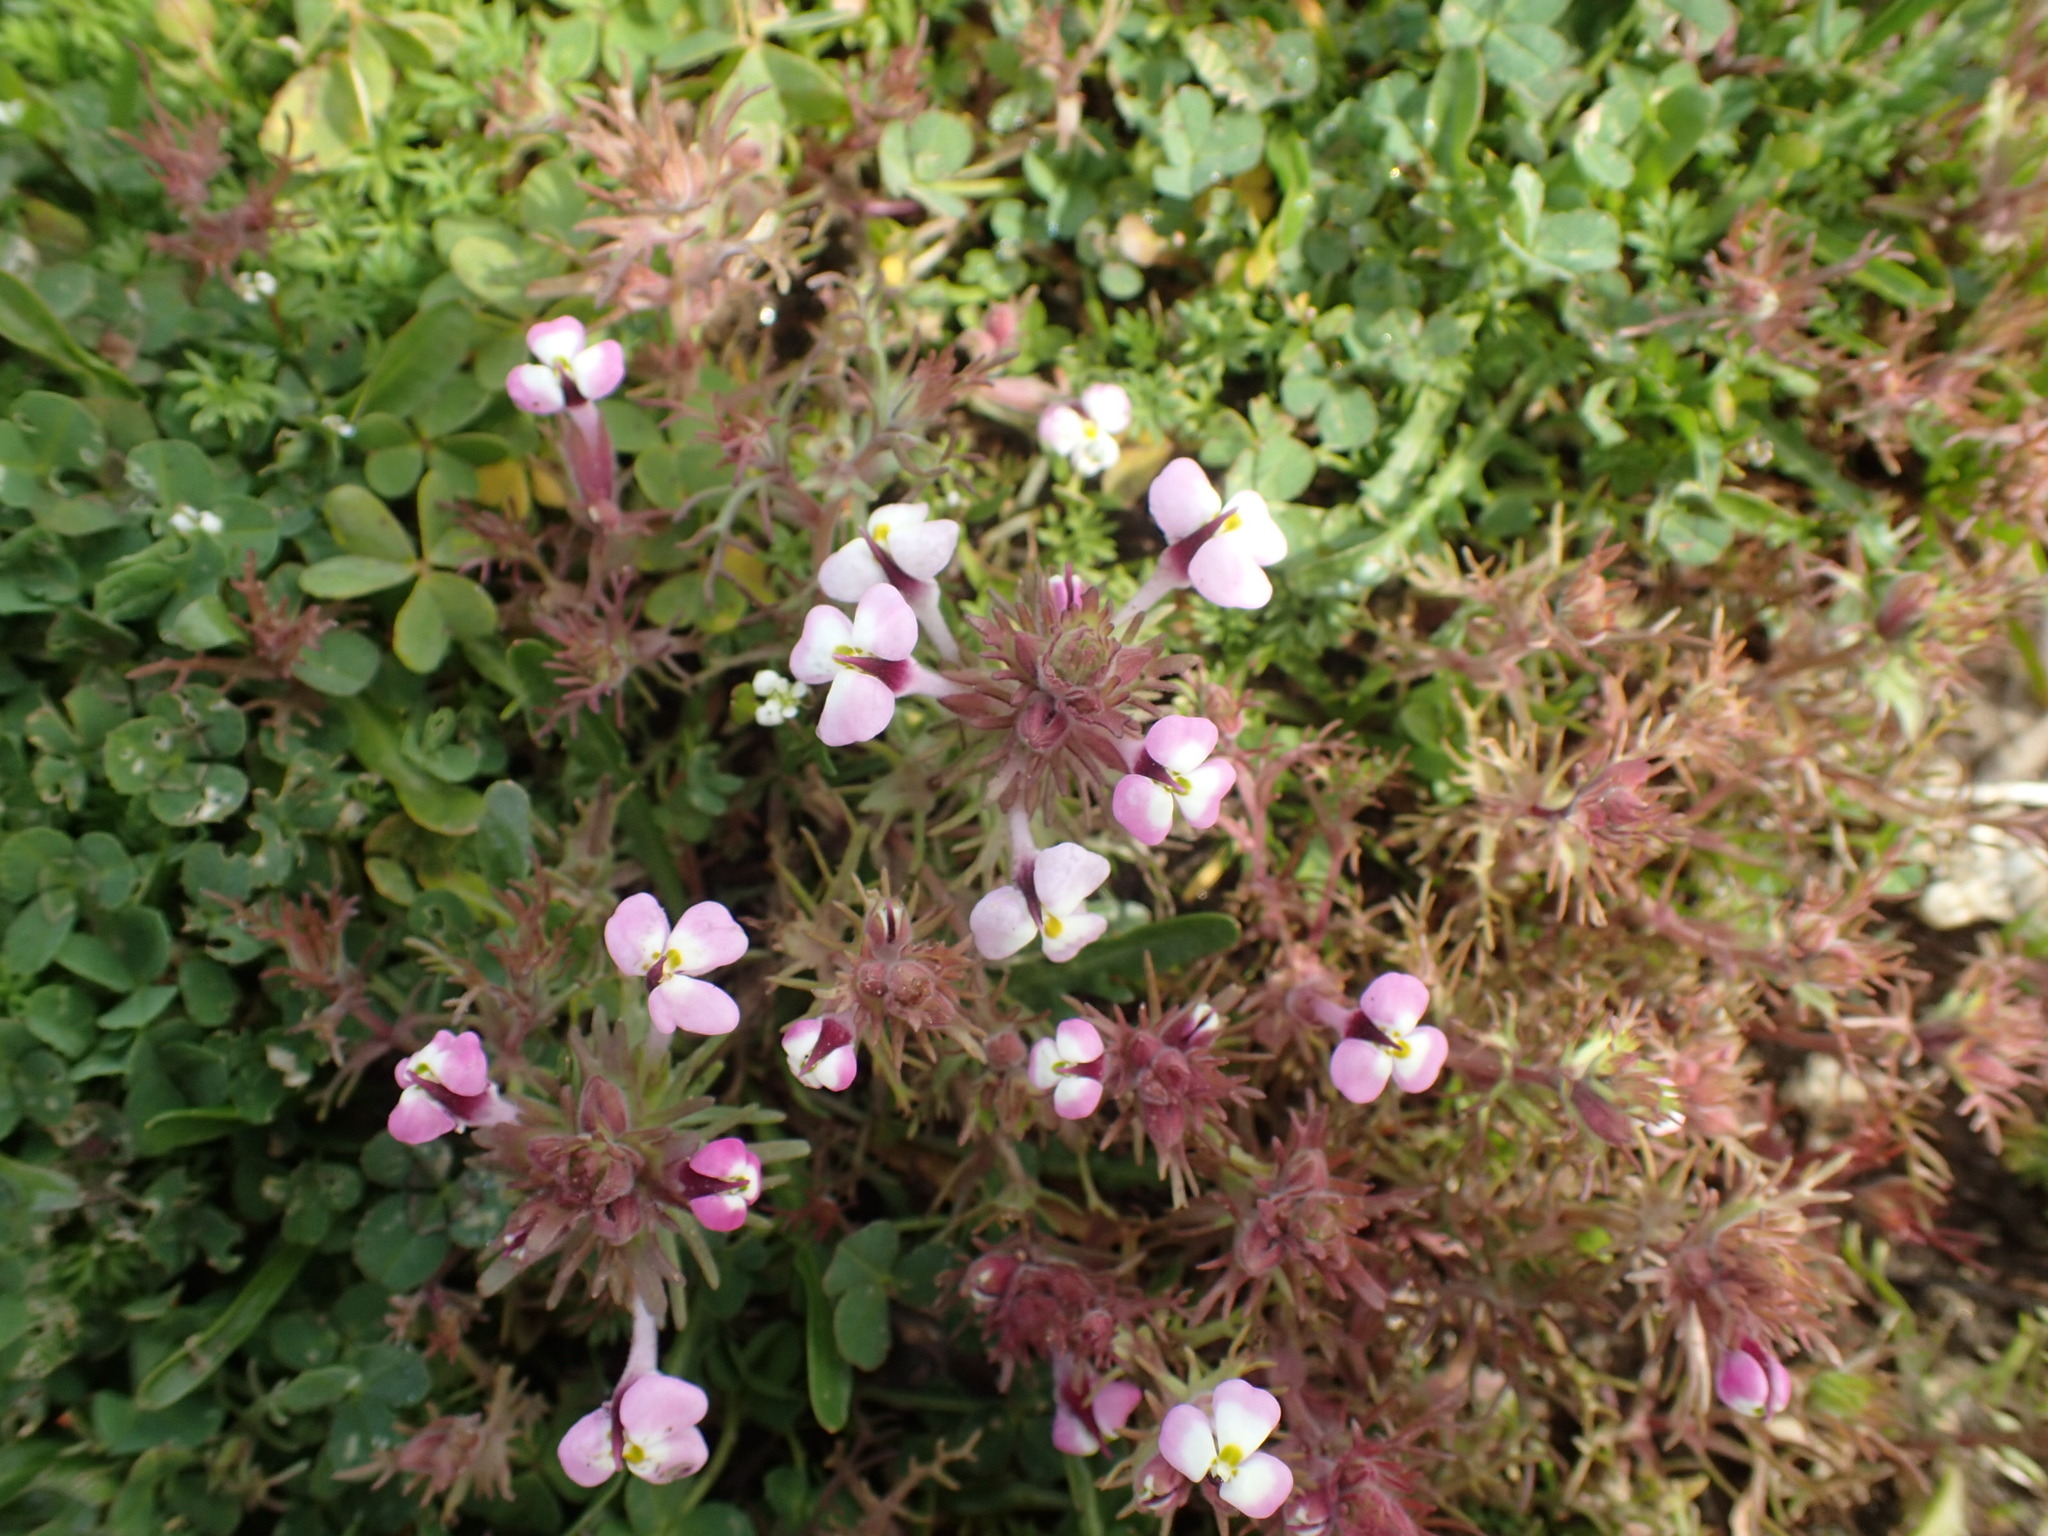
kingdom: Plantae
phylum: Tracheophyta
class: Magnoliopsida
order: Lamiales
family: Orobanchaceae
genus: Triphysaria
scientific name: Triphysaria eriantha
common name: Johnny-tuck
